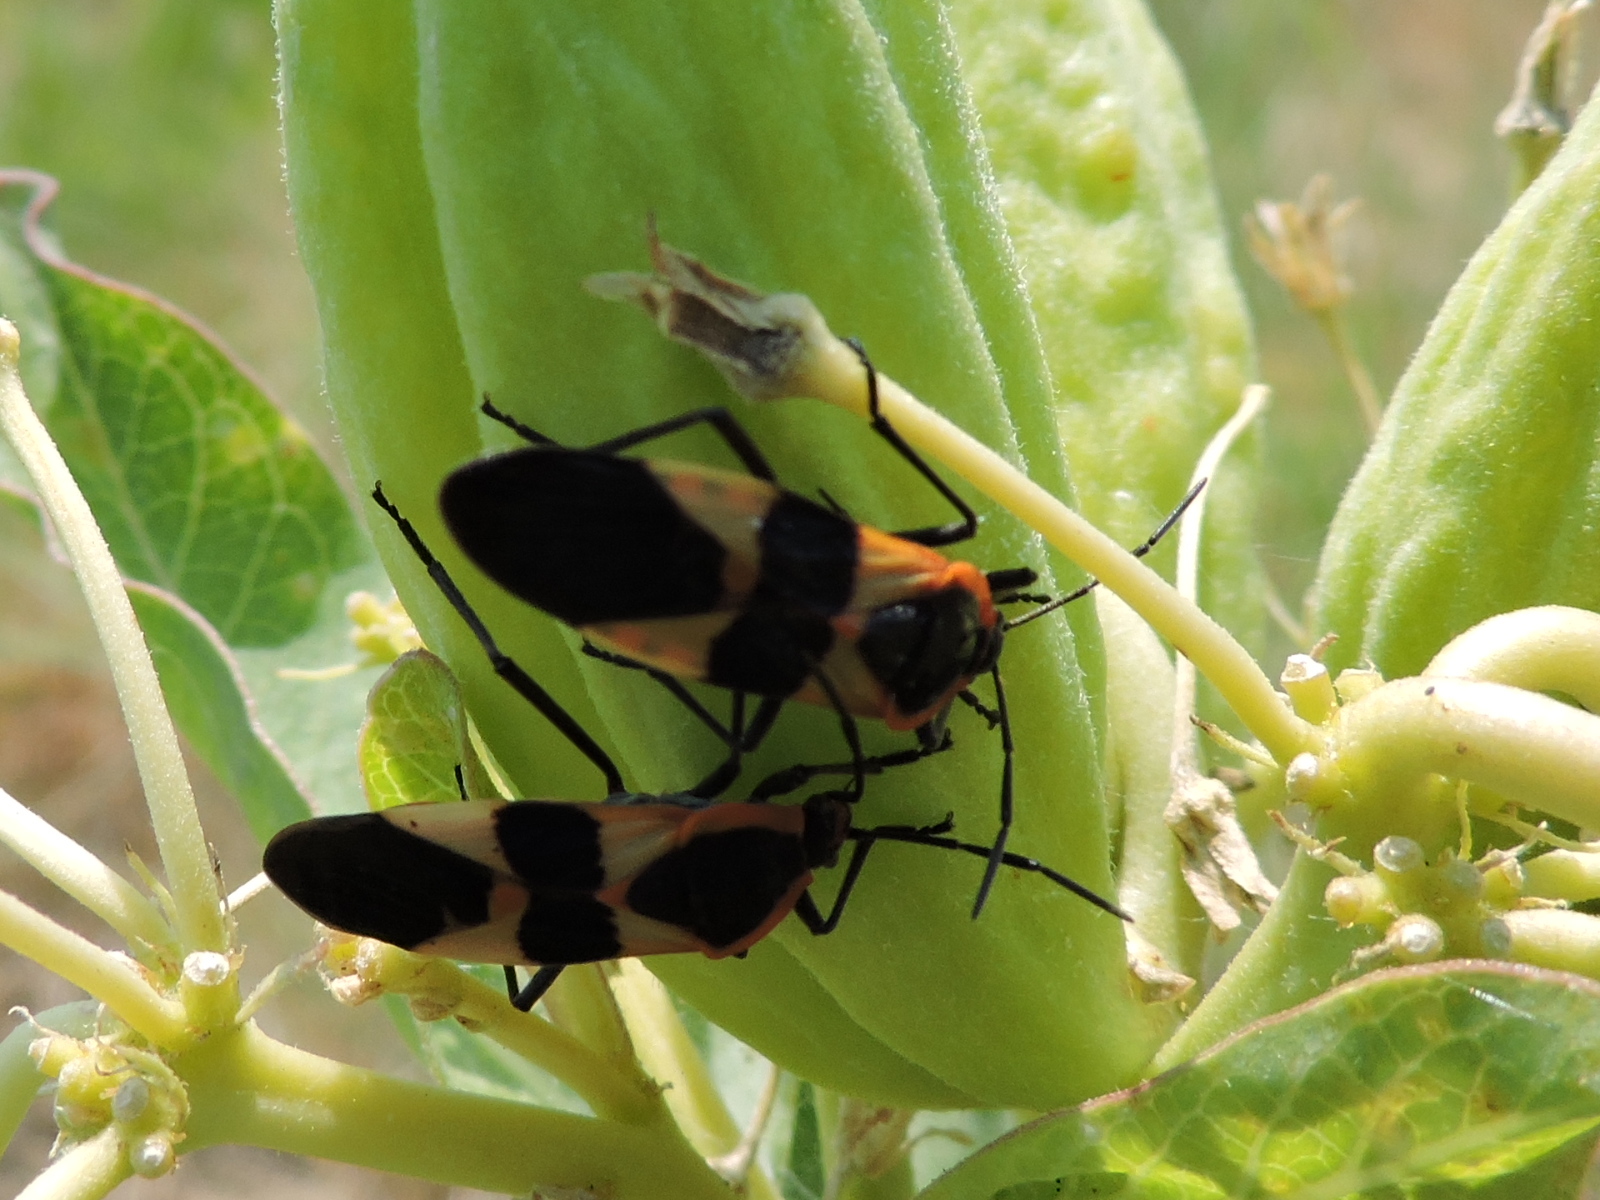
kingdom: Animalia
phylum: Arthropoda
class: Insecta
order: Hemiptera
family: Lygaeidae
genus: Oncopeltus
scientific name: Oncopeltus fasciatus
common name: Large milkweed bug
